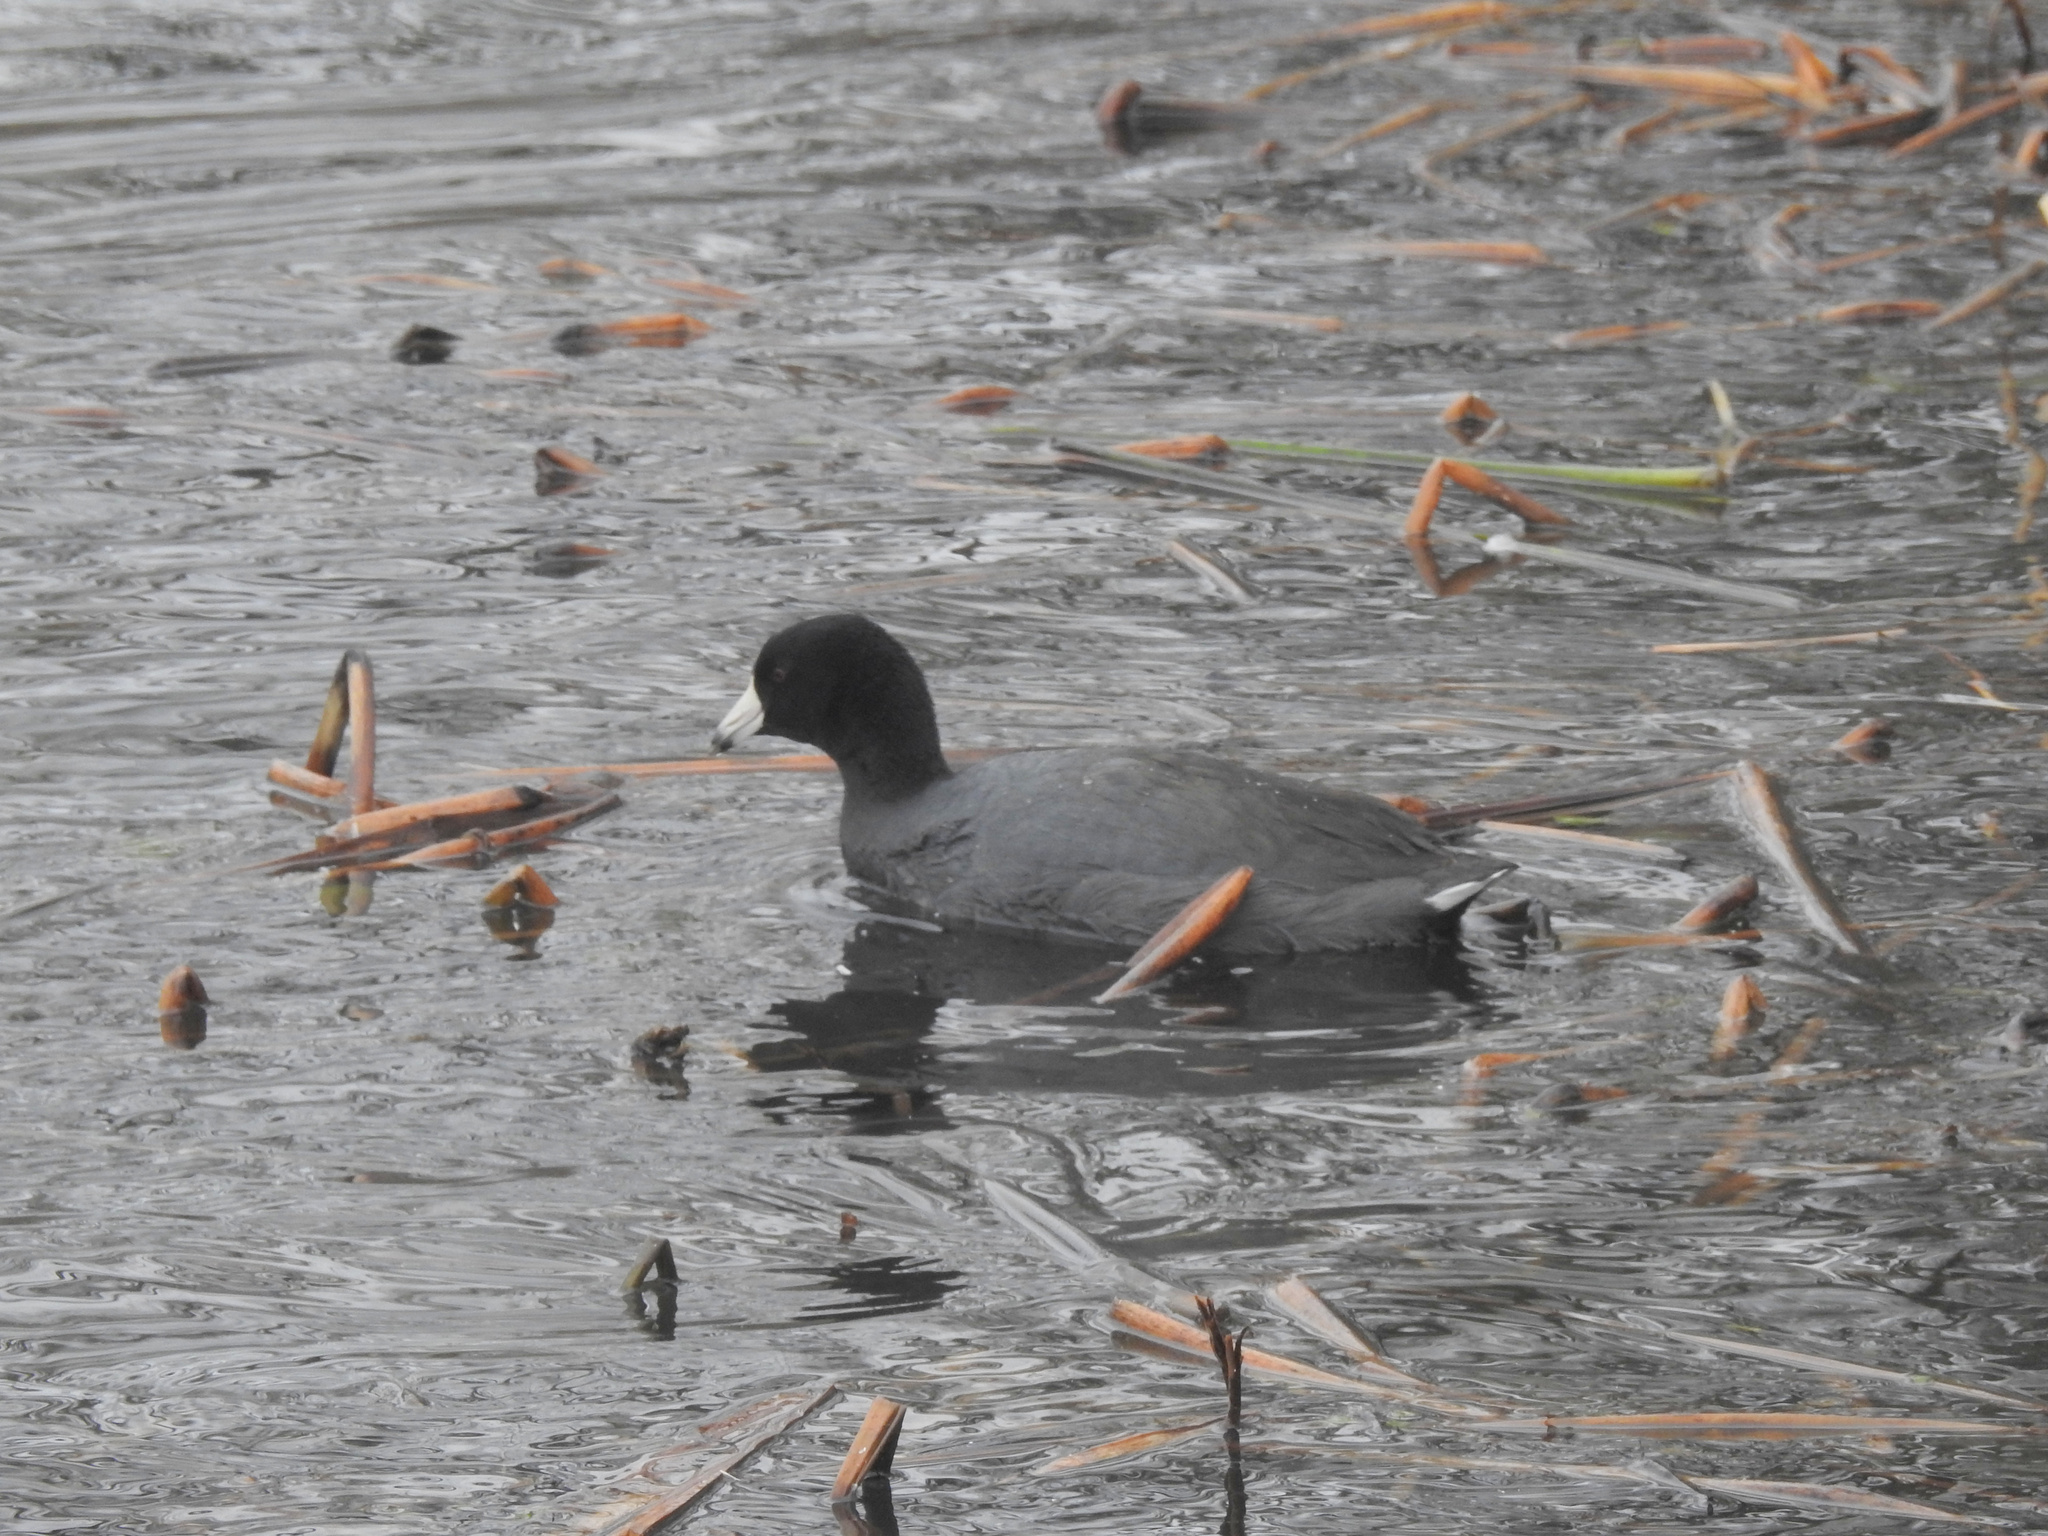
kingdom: Animalia
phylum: Chordata
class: Aves
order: Gruiformes
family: Rallidae
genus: Fulica
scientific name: Fulica americana
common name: American coot
